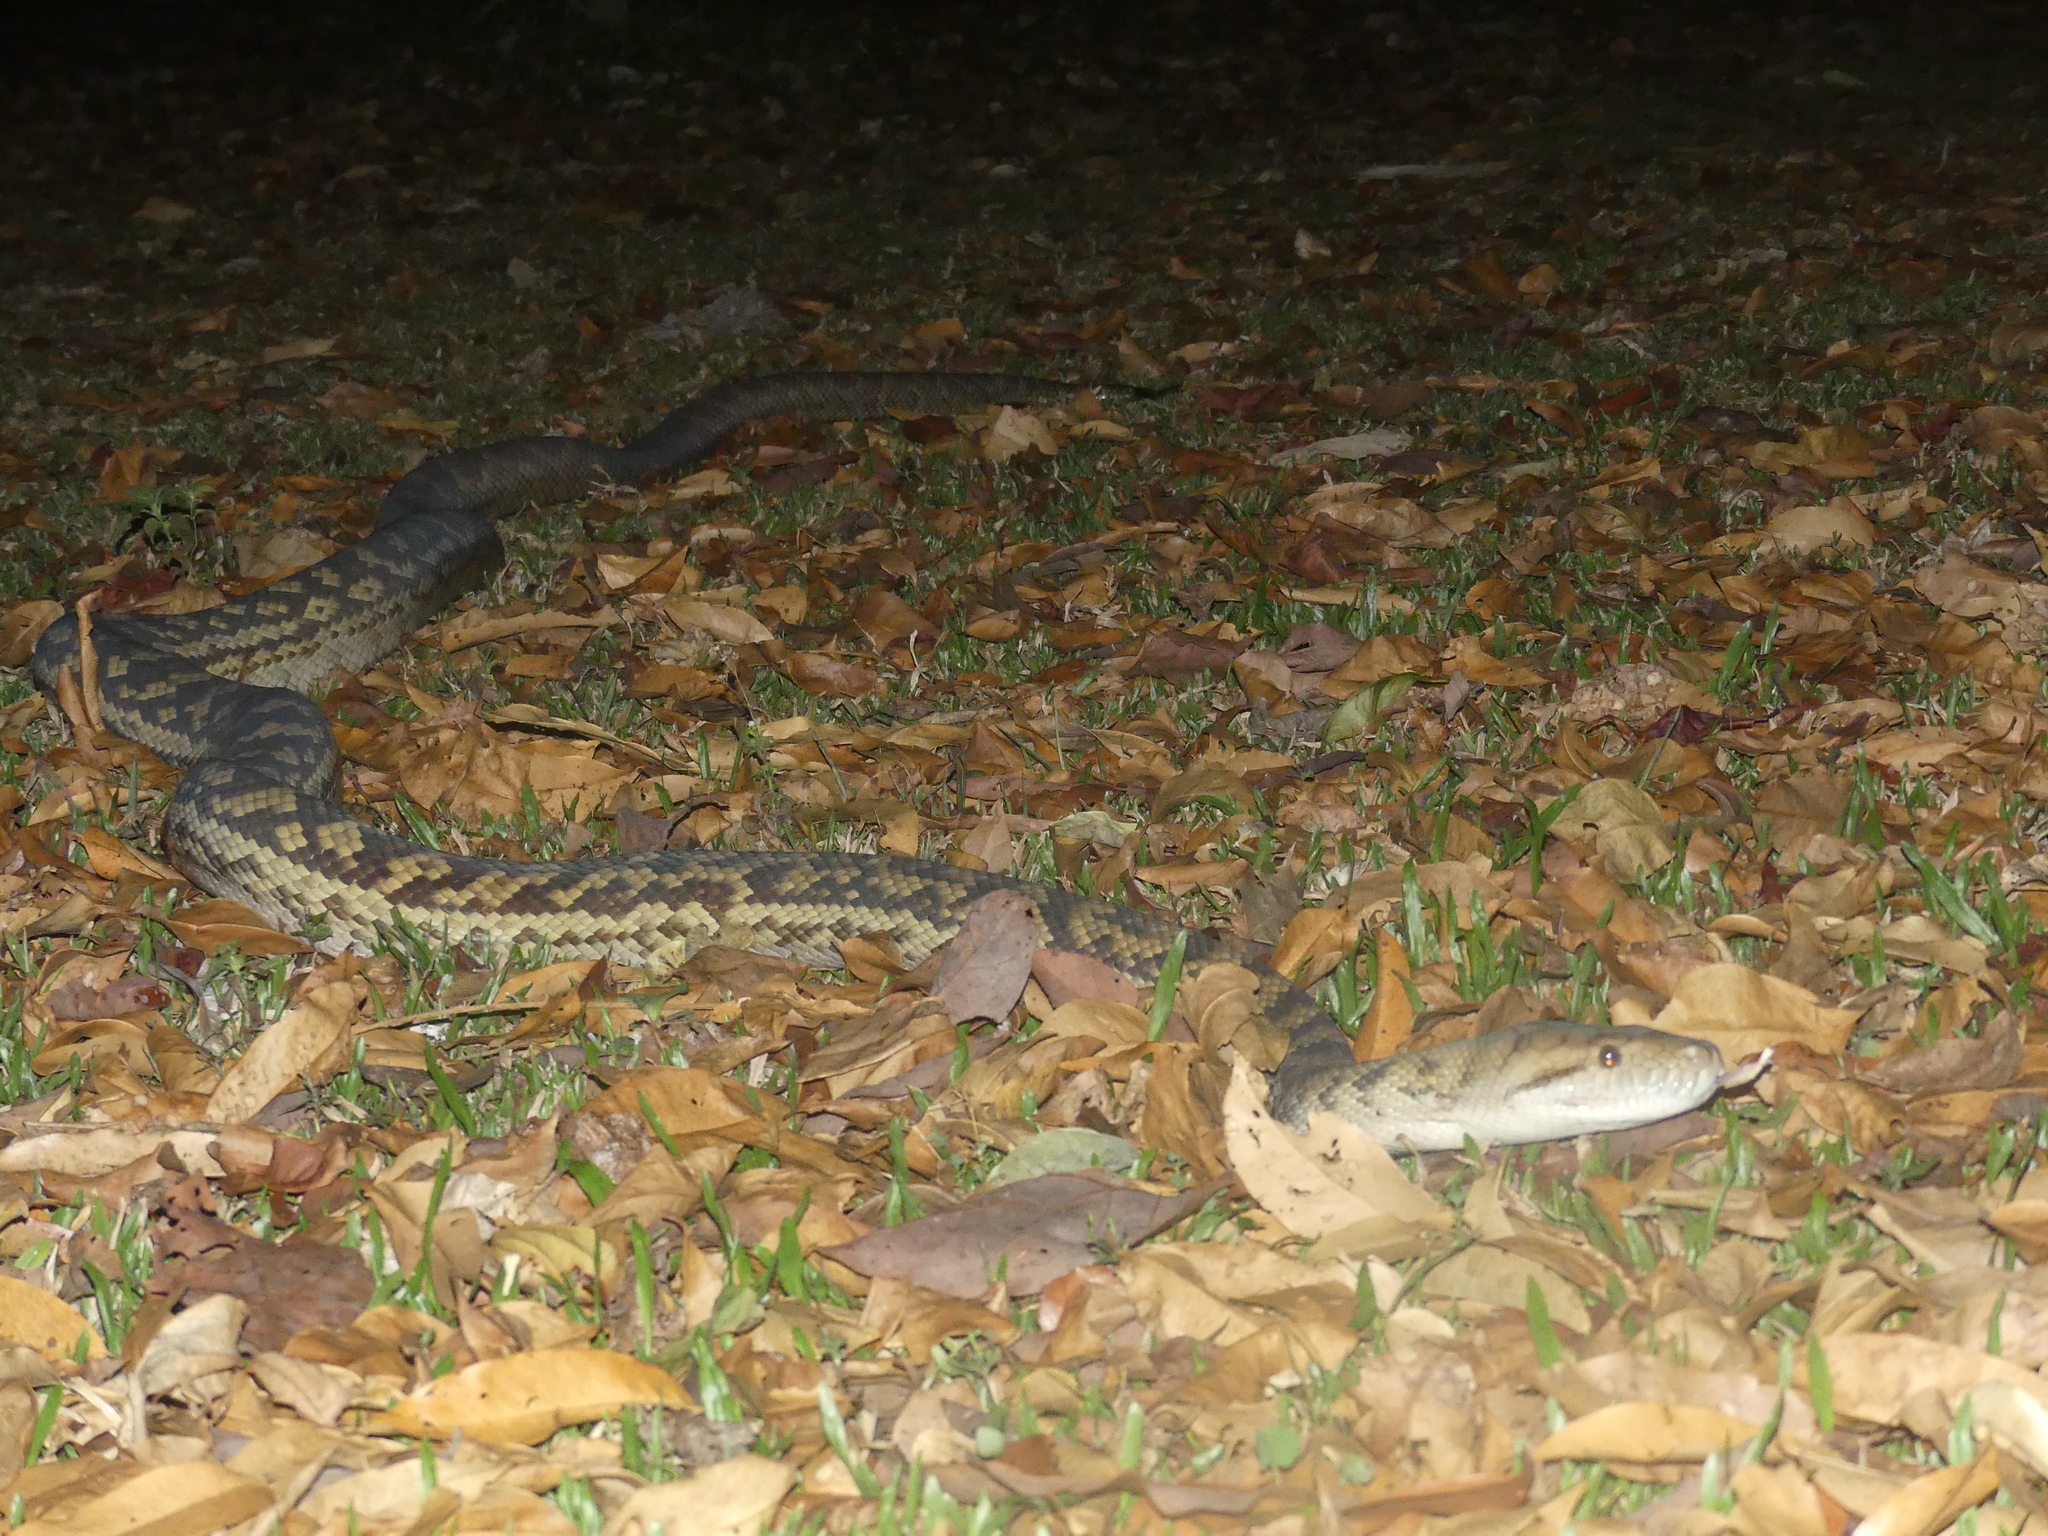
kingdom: Animalia
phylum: Chordata
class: Squamata
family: Pythonidae
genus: Simalia
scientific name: Simalia kinghorni
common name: Scrub python
